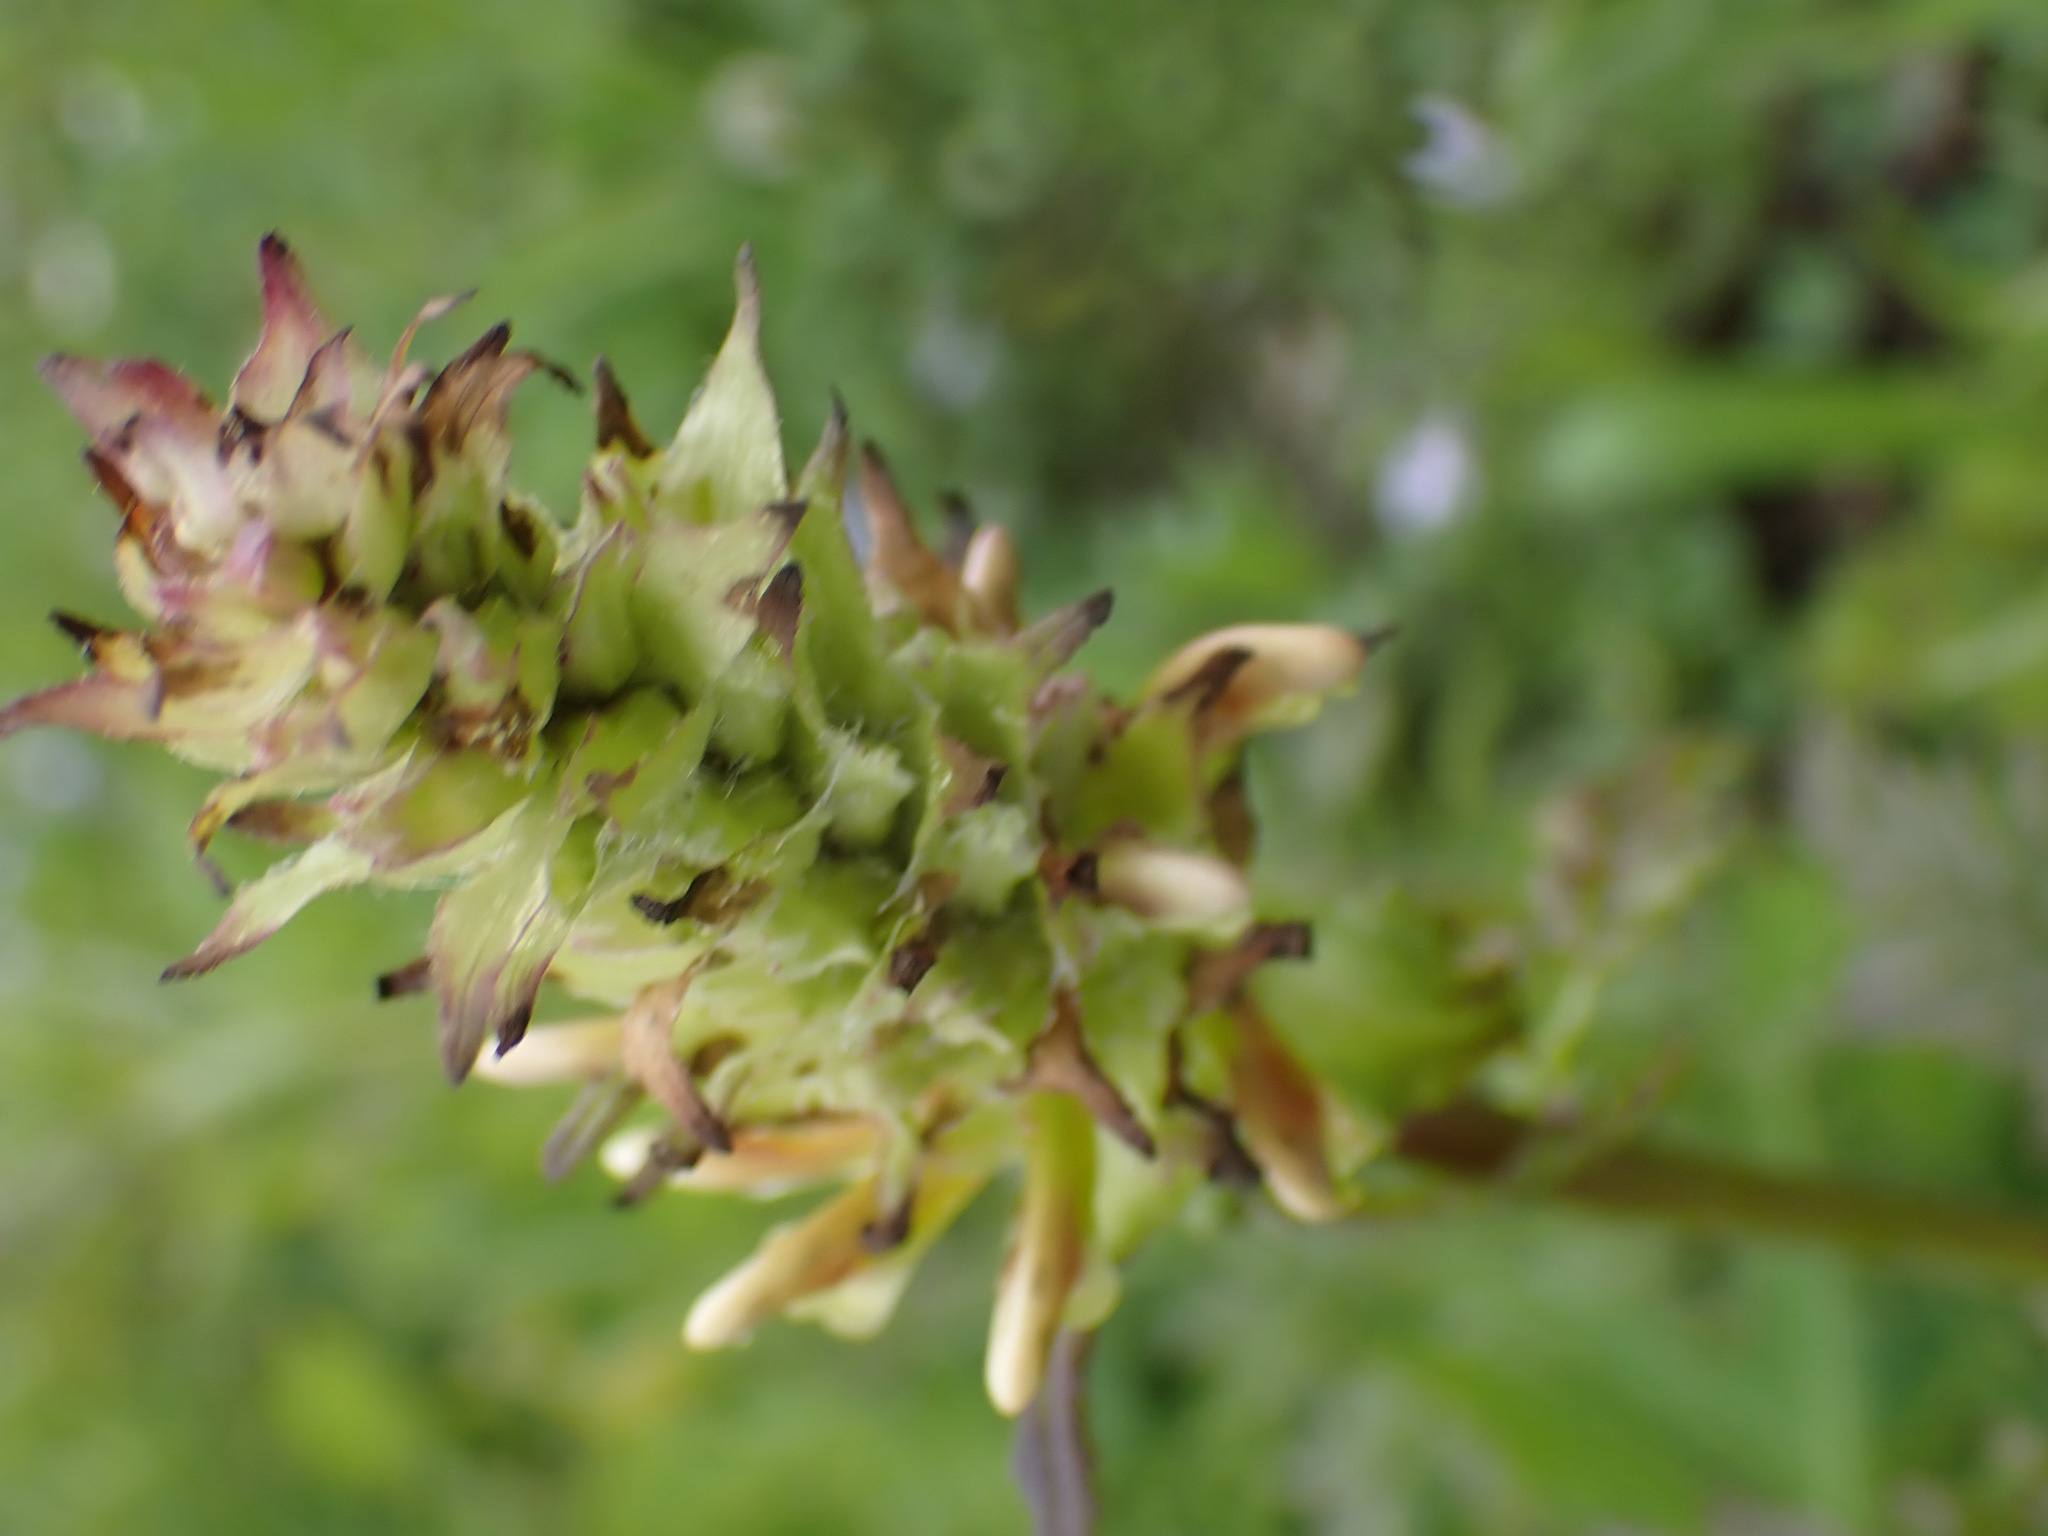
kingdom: Plantae
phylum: Tracheophyta
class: Magnoliopsida
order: Lamiales
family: Orobanchaceae
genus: Pedicularis
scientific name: Pedicularis bracteosa
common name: Bracted lousewort
